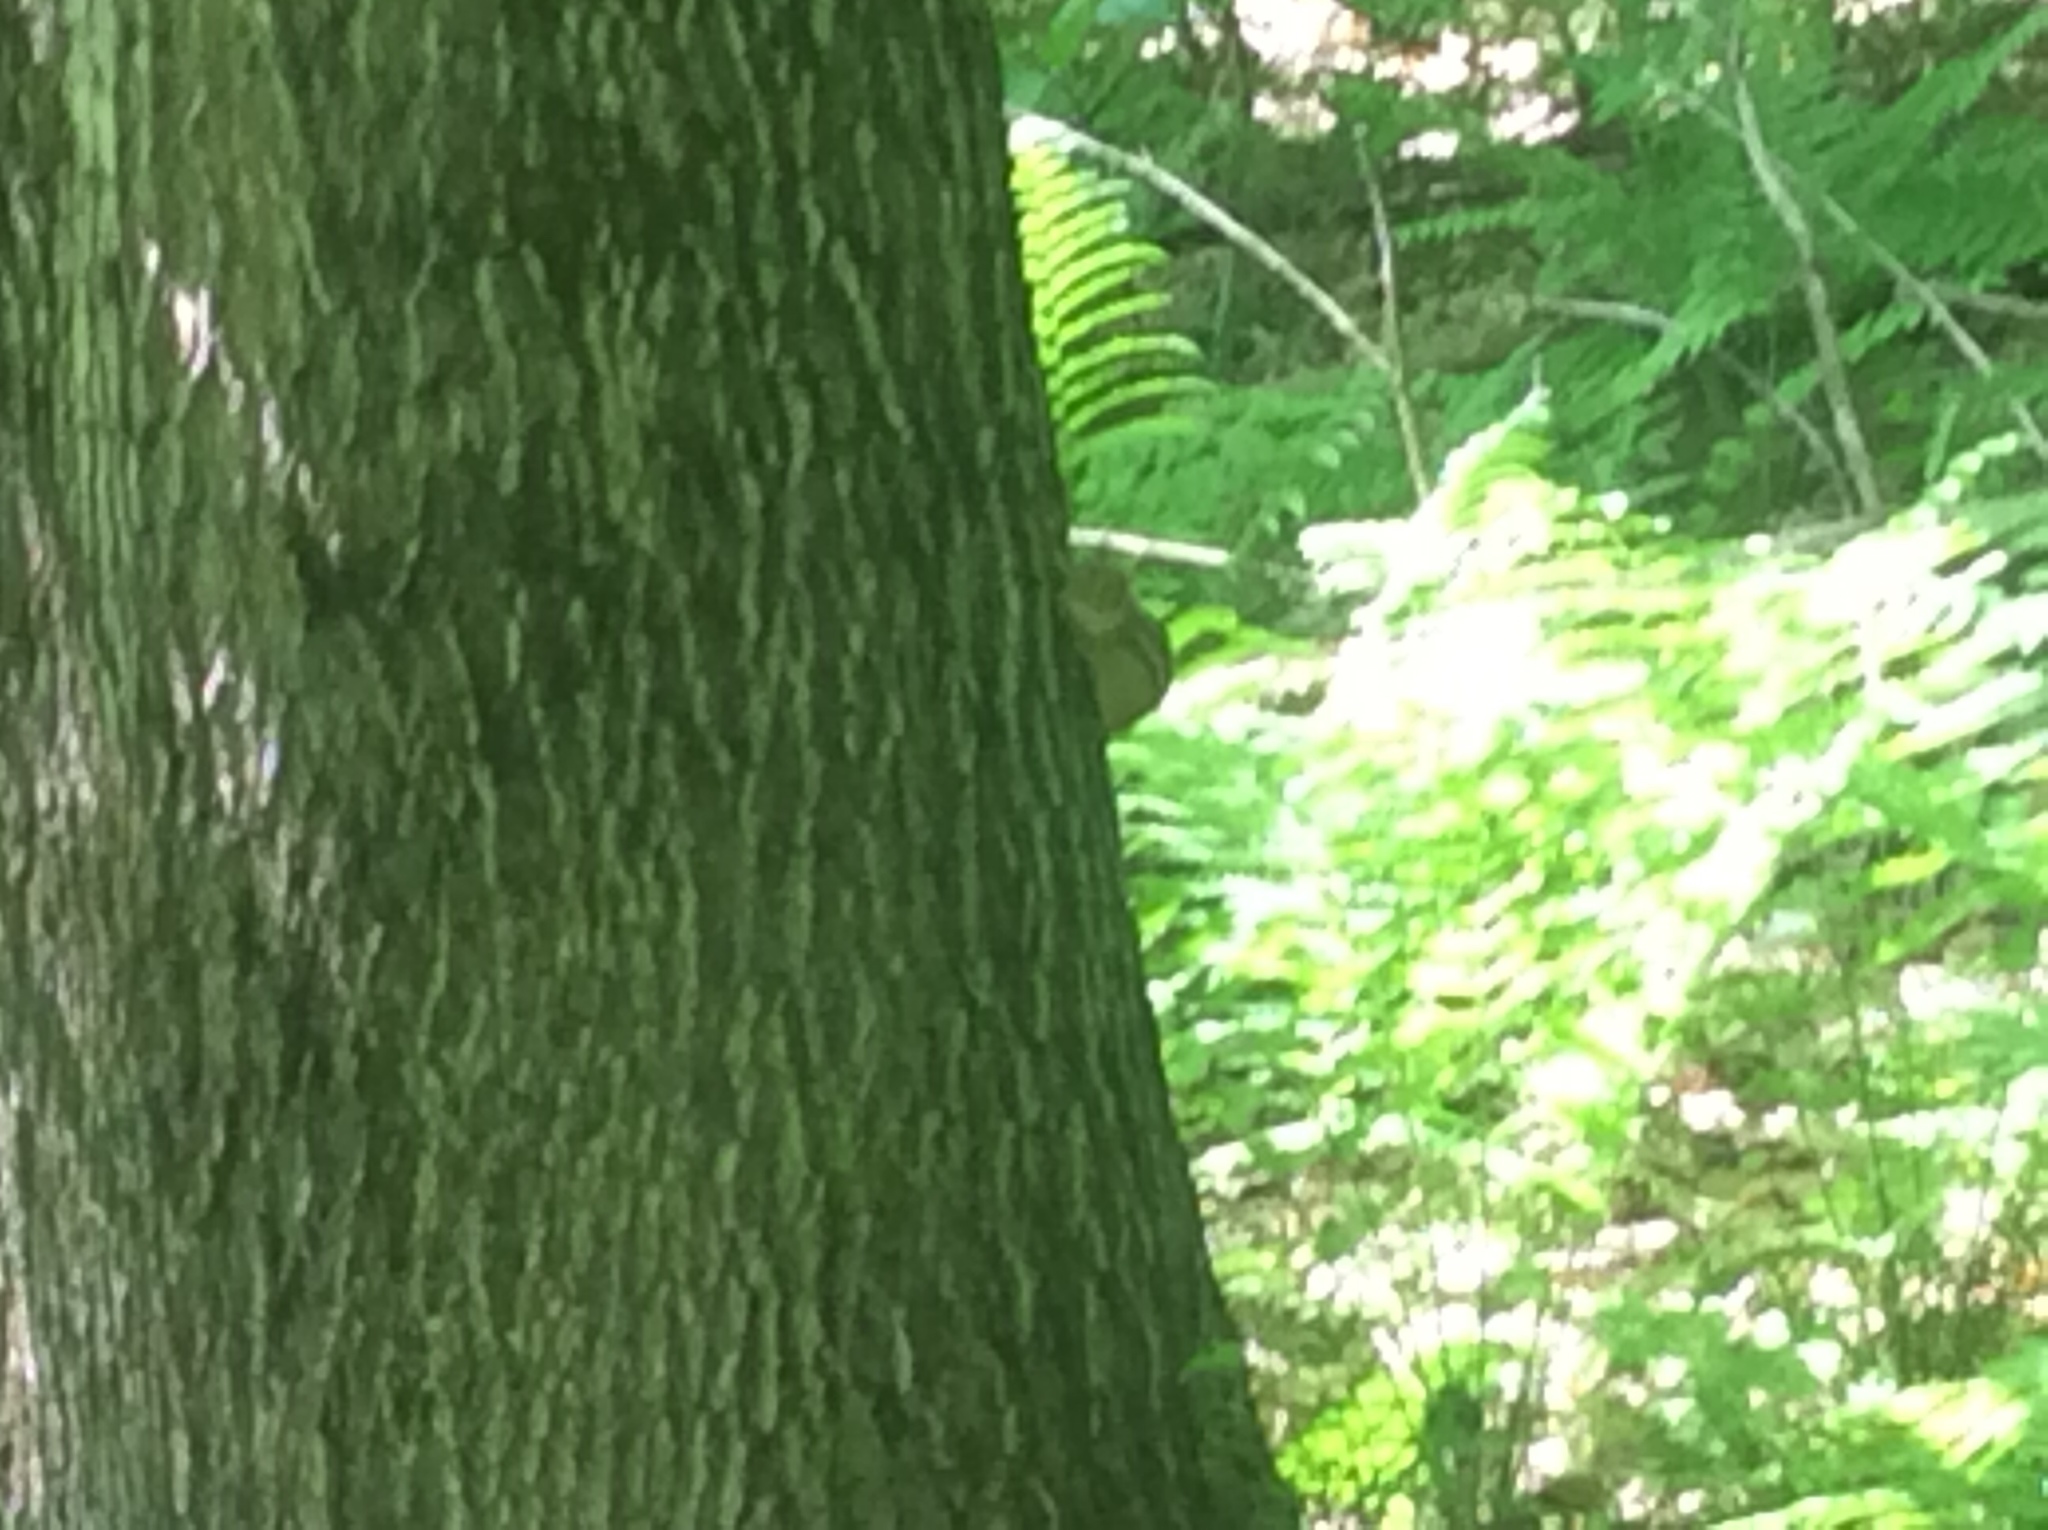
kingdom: Animalia
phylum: Chordata
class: Mammalia
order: Rodentia
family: Sciuridae
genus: Tamias
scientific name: Tamias striatus
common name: Eastern chipmunk
